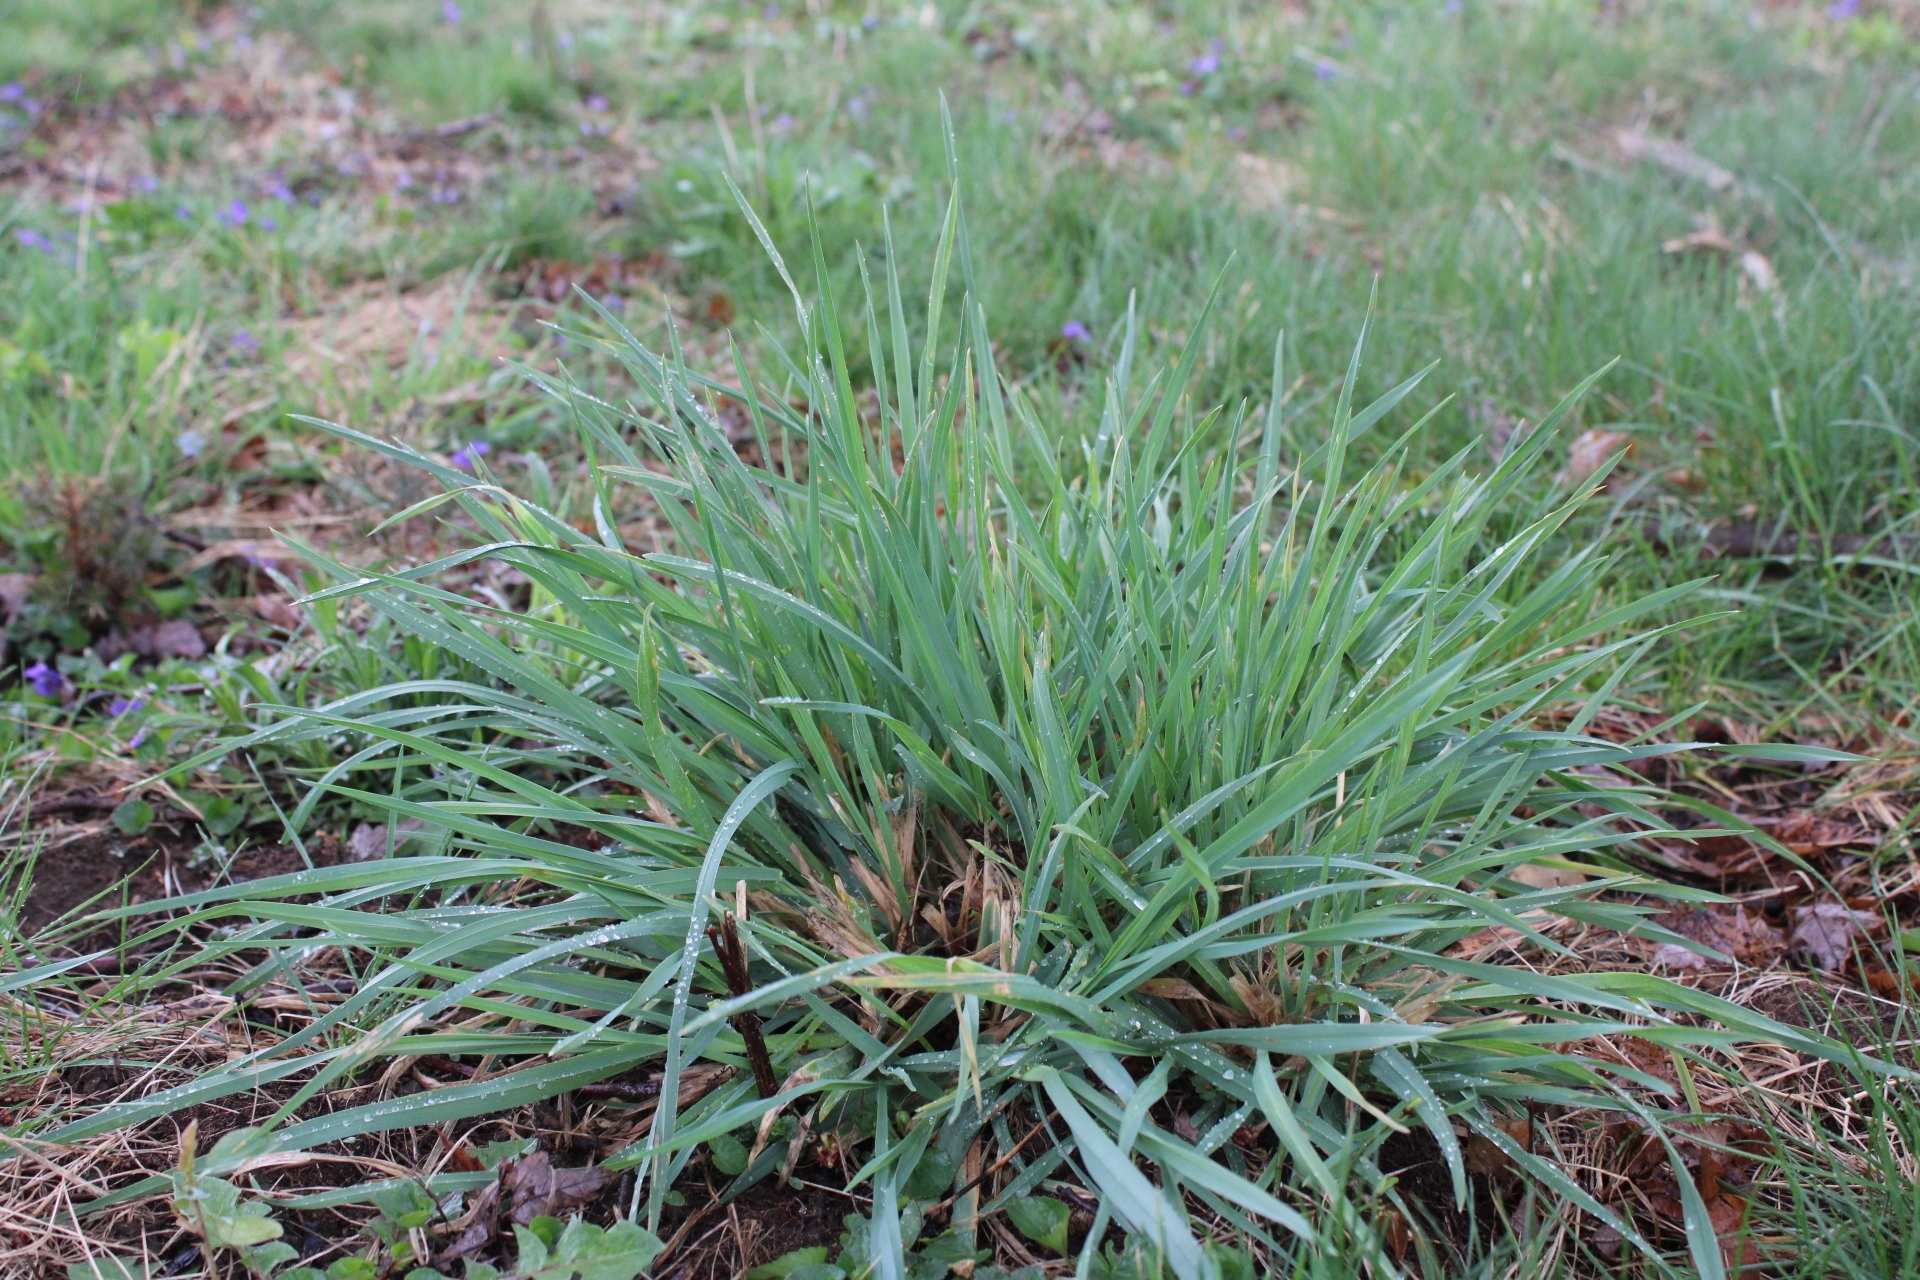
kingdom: Plantae
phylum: Tracheophyta
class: Liliopsida
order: Poales
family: Poaceae
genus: Dactylis
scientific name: Dactylis glomerata
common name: Orchardgrass
